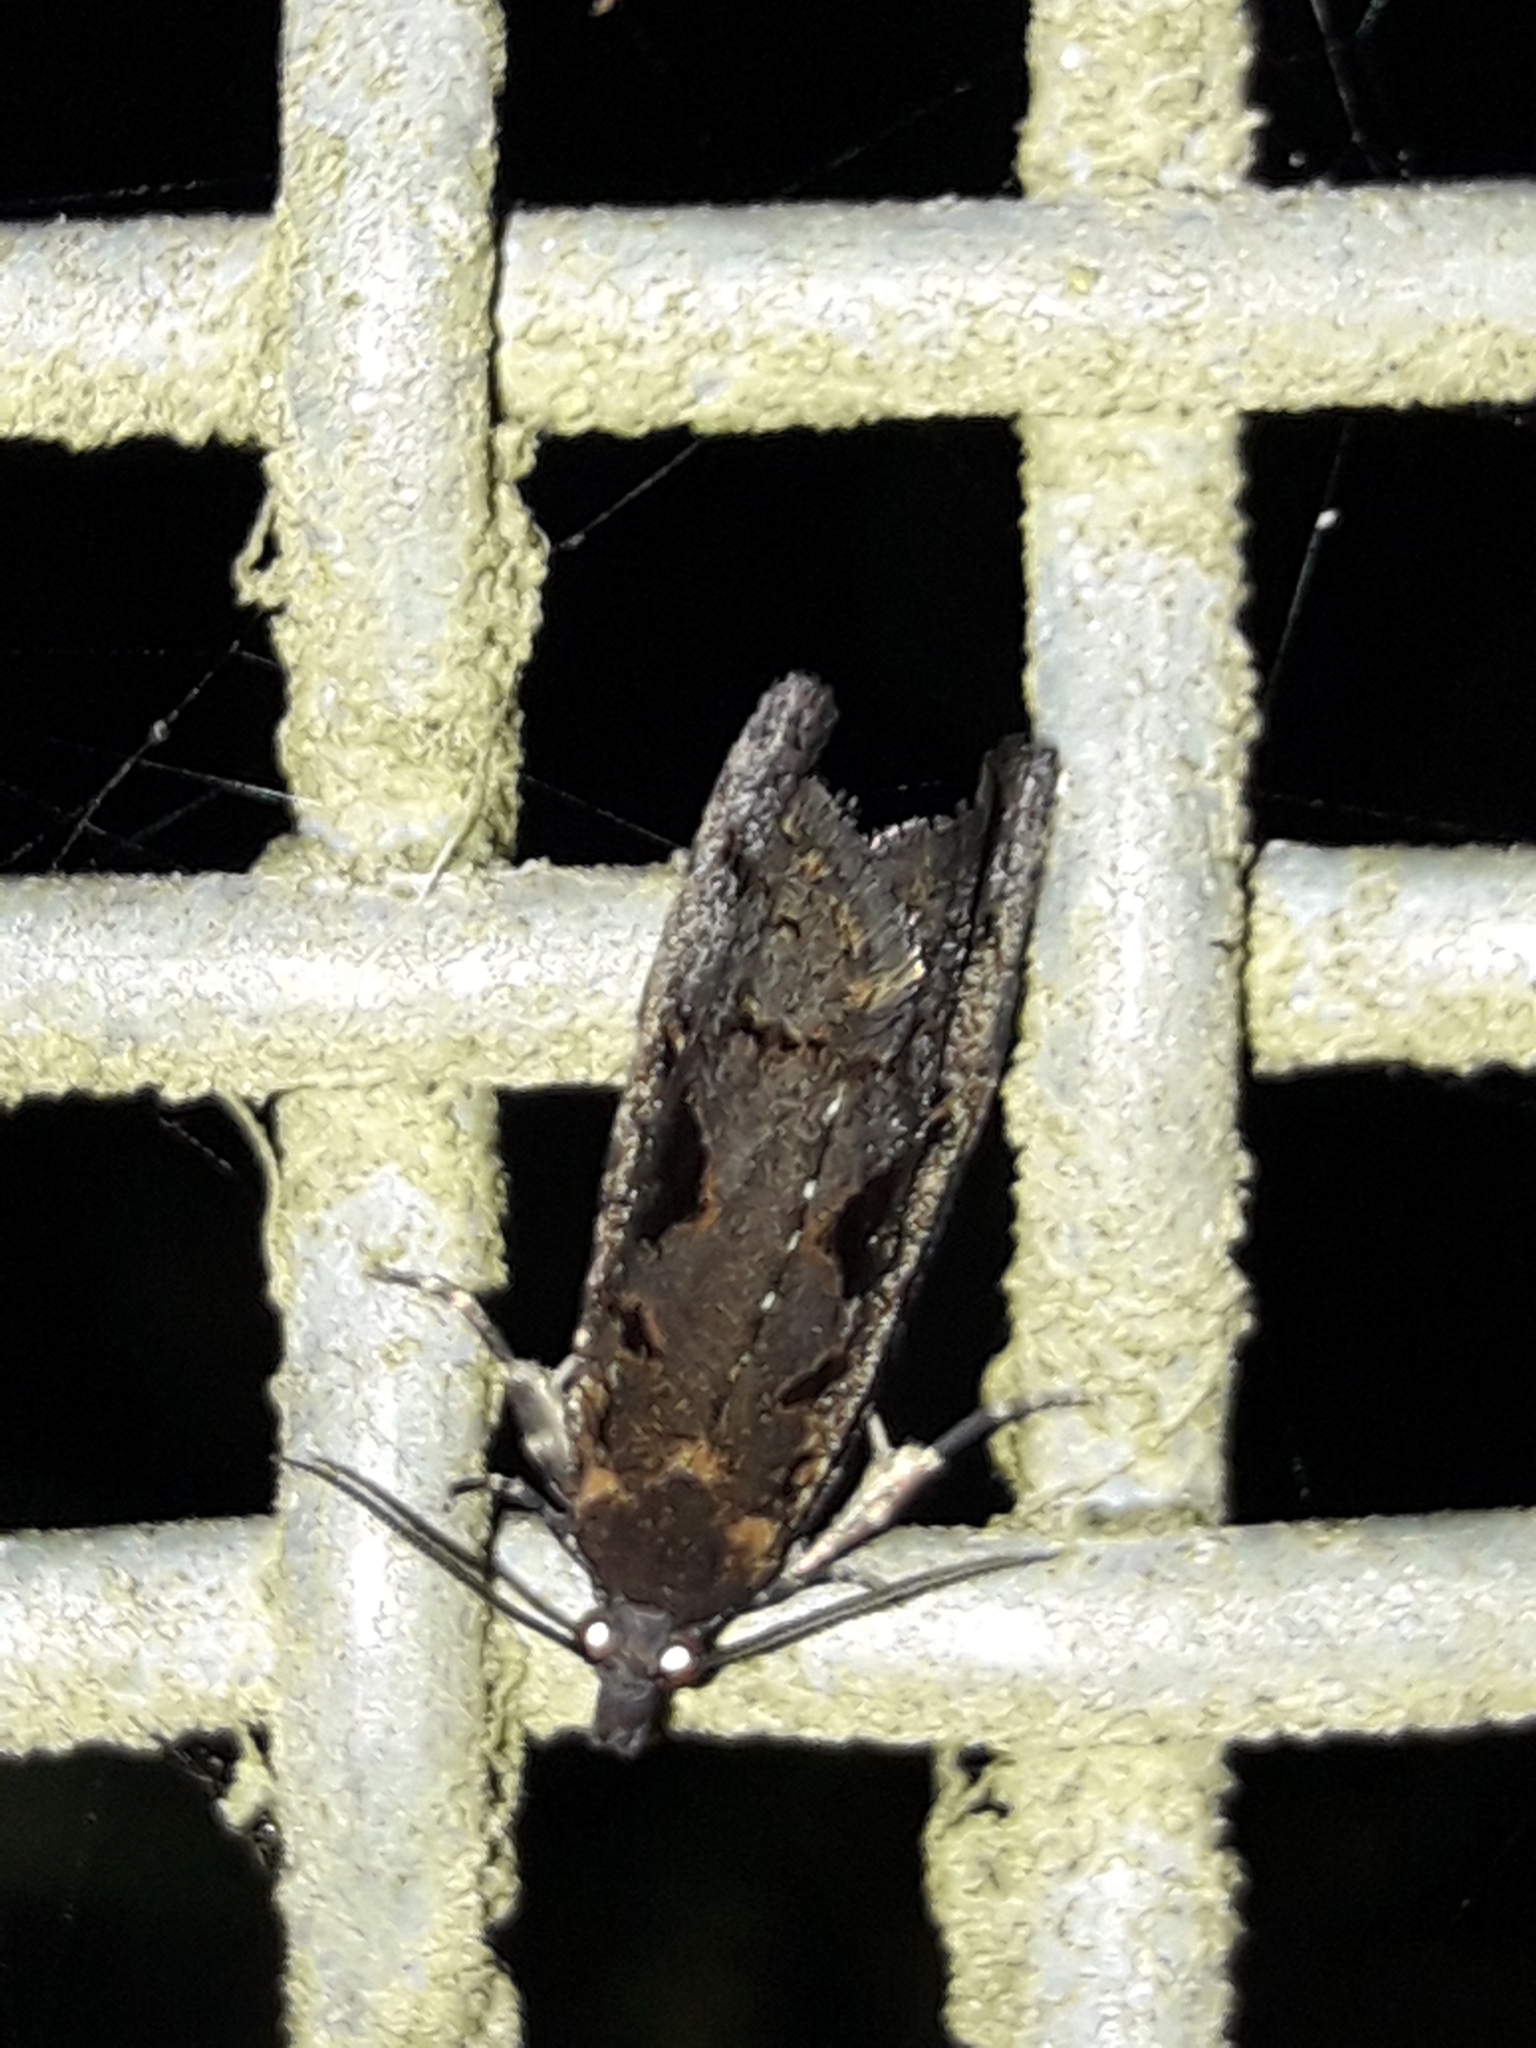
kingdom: Animalia
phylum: Arthropoda
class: Insecta
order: Lepidoptera
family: Tortricidae
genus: Cryptaspasma
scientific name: Cryptaspasma querula
